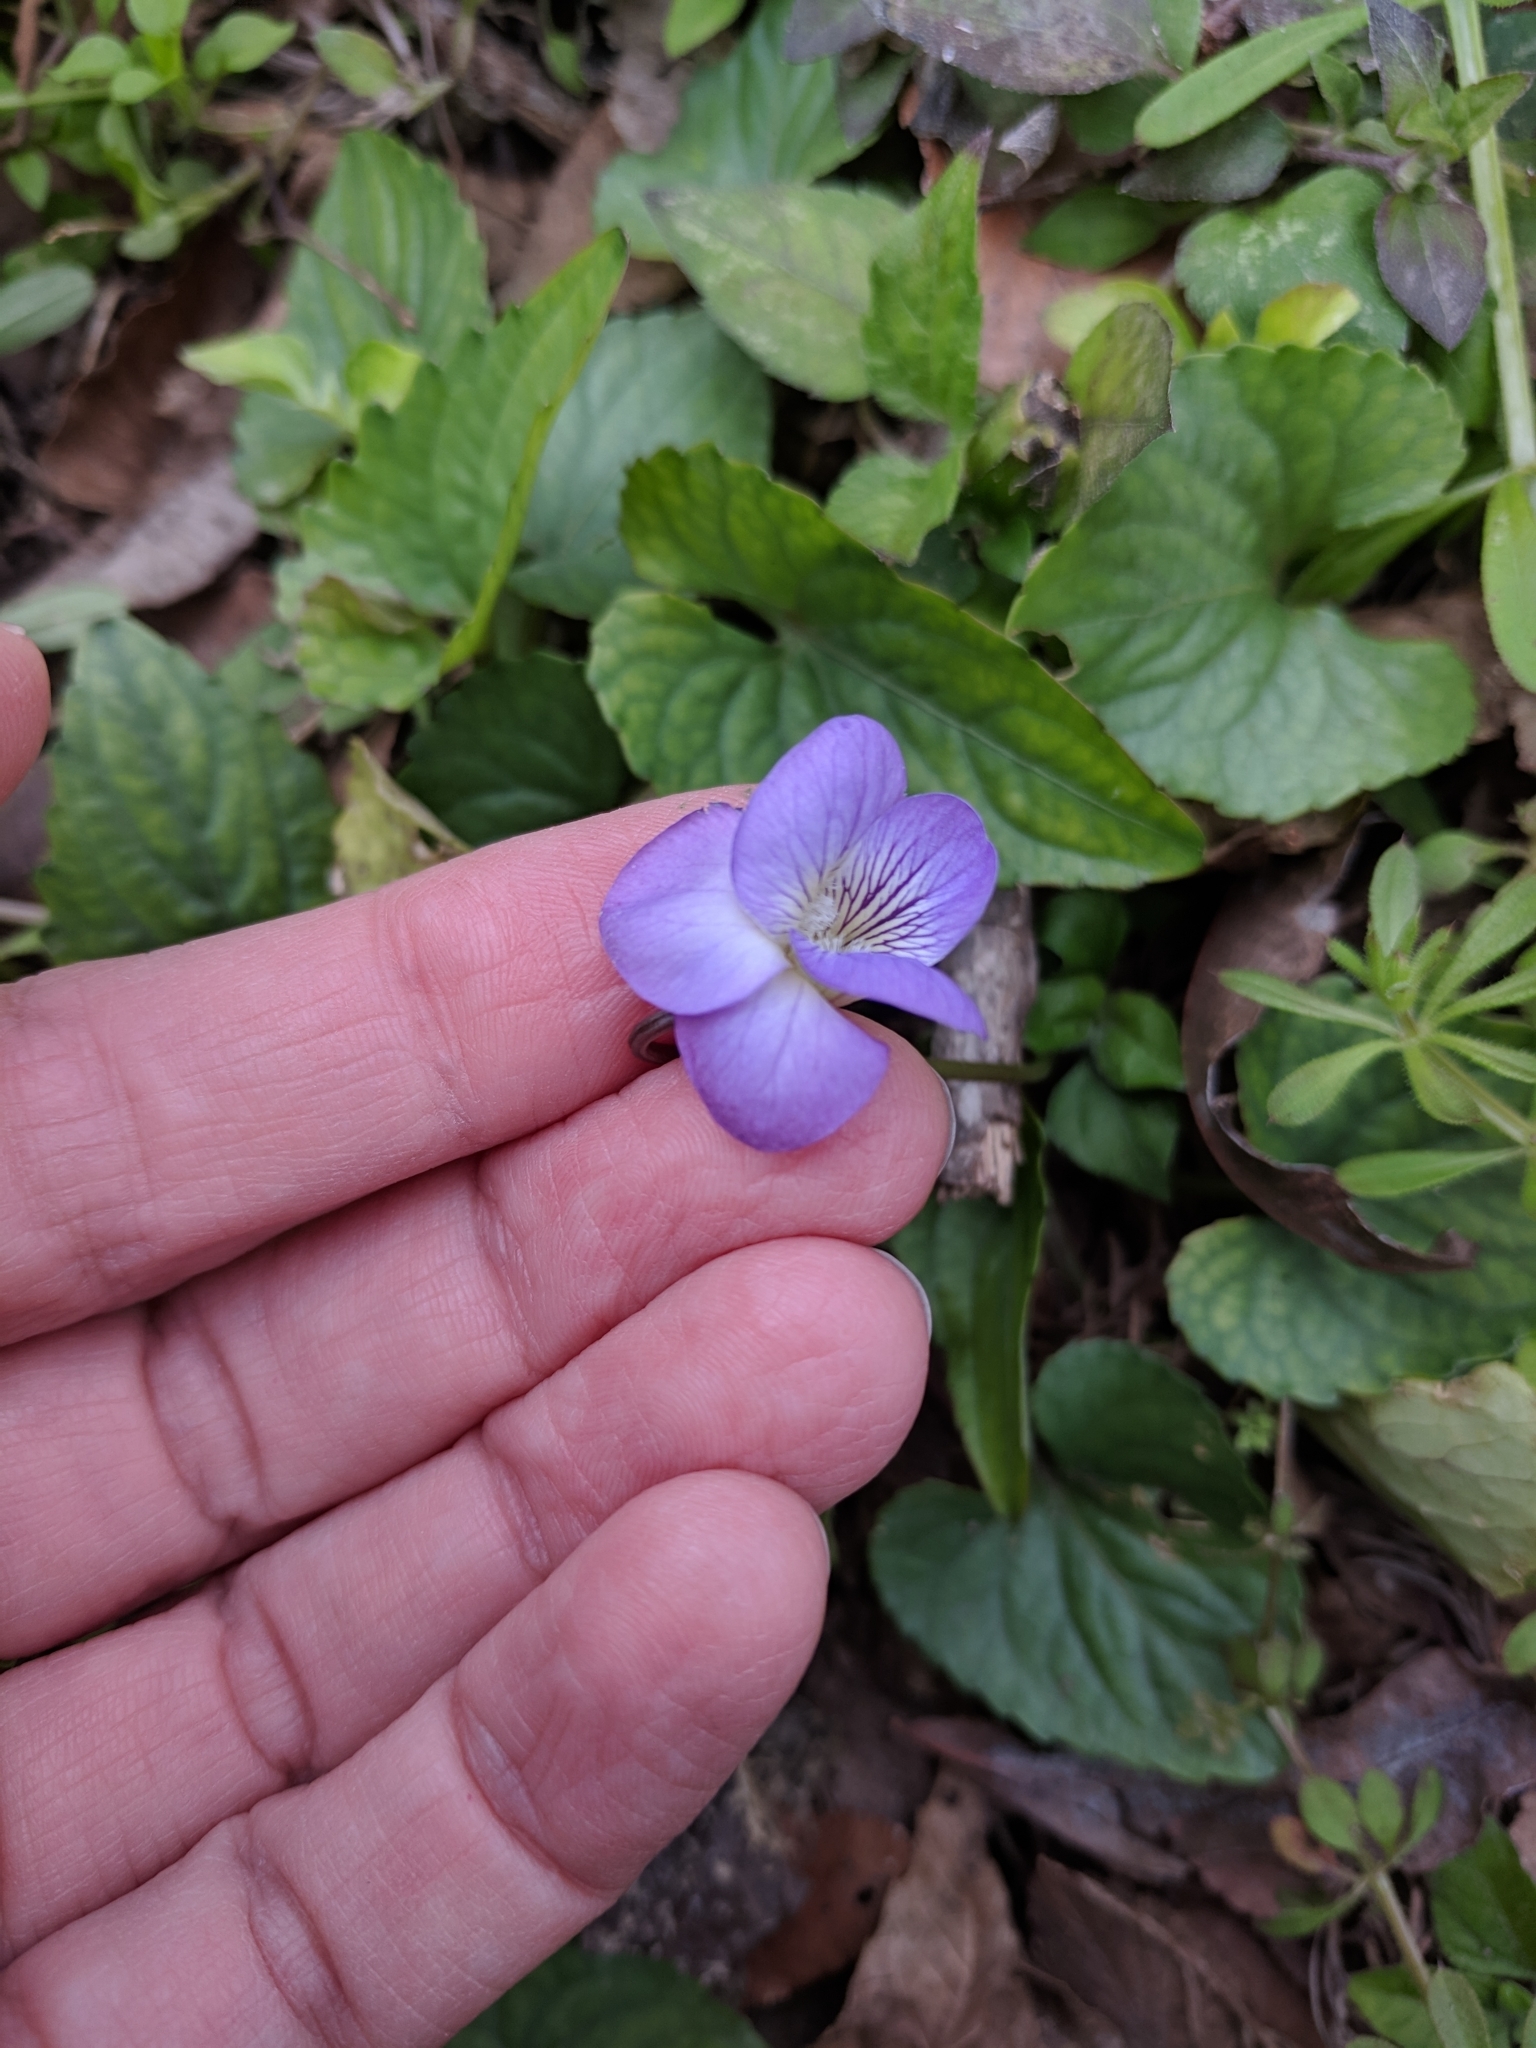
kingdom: Plantae
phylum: Tracheophyta
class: Magnoliopsida
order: Malpighiales
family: Violaceae
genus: Viola
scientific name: Viola missouriensis
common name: Missouri violet
